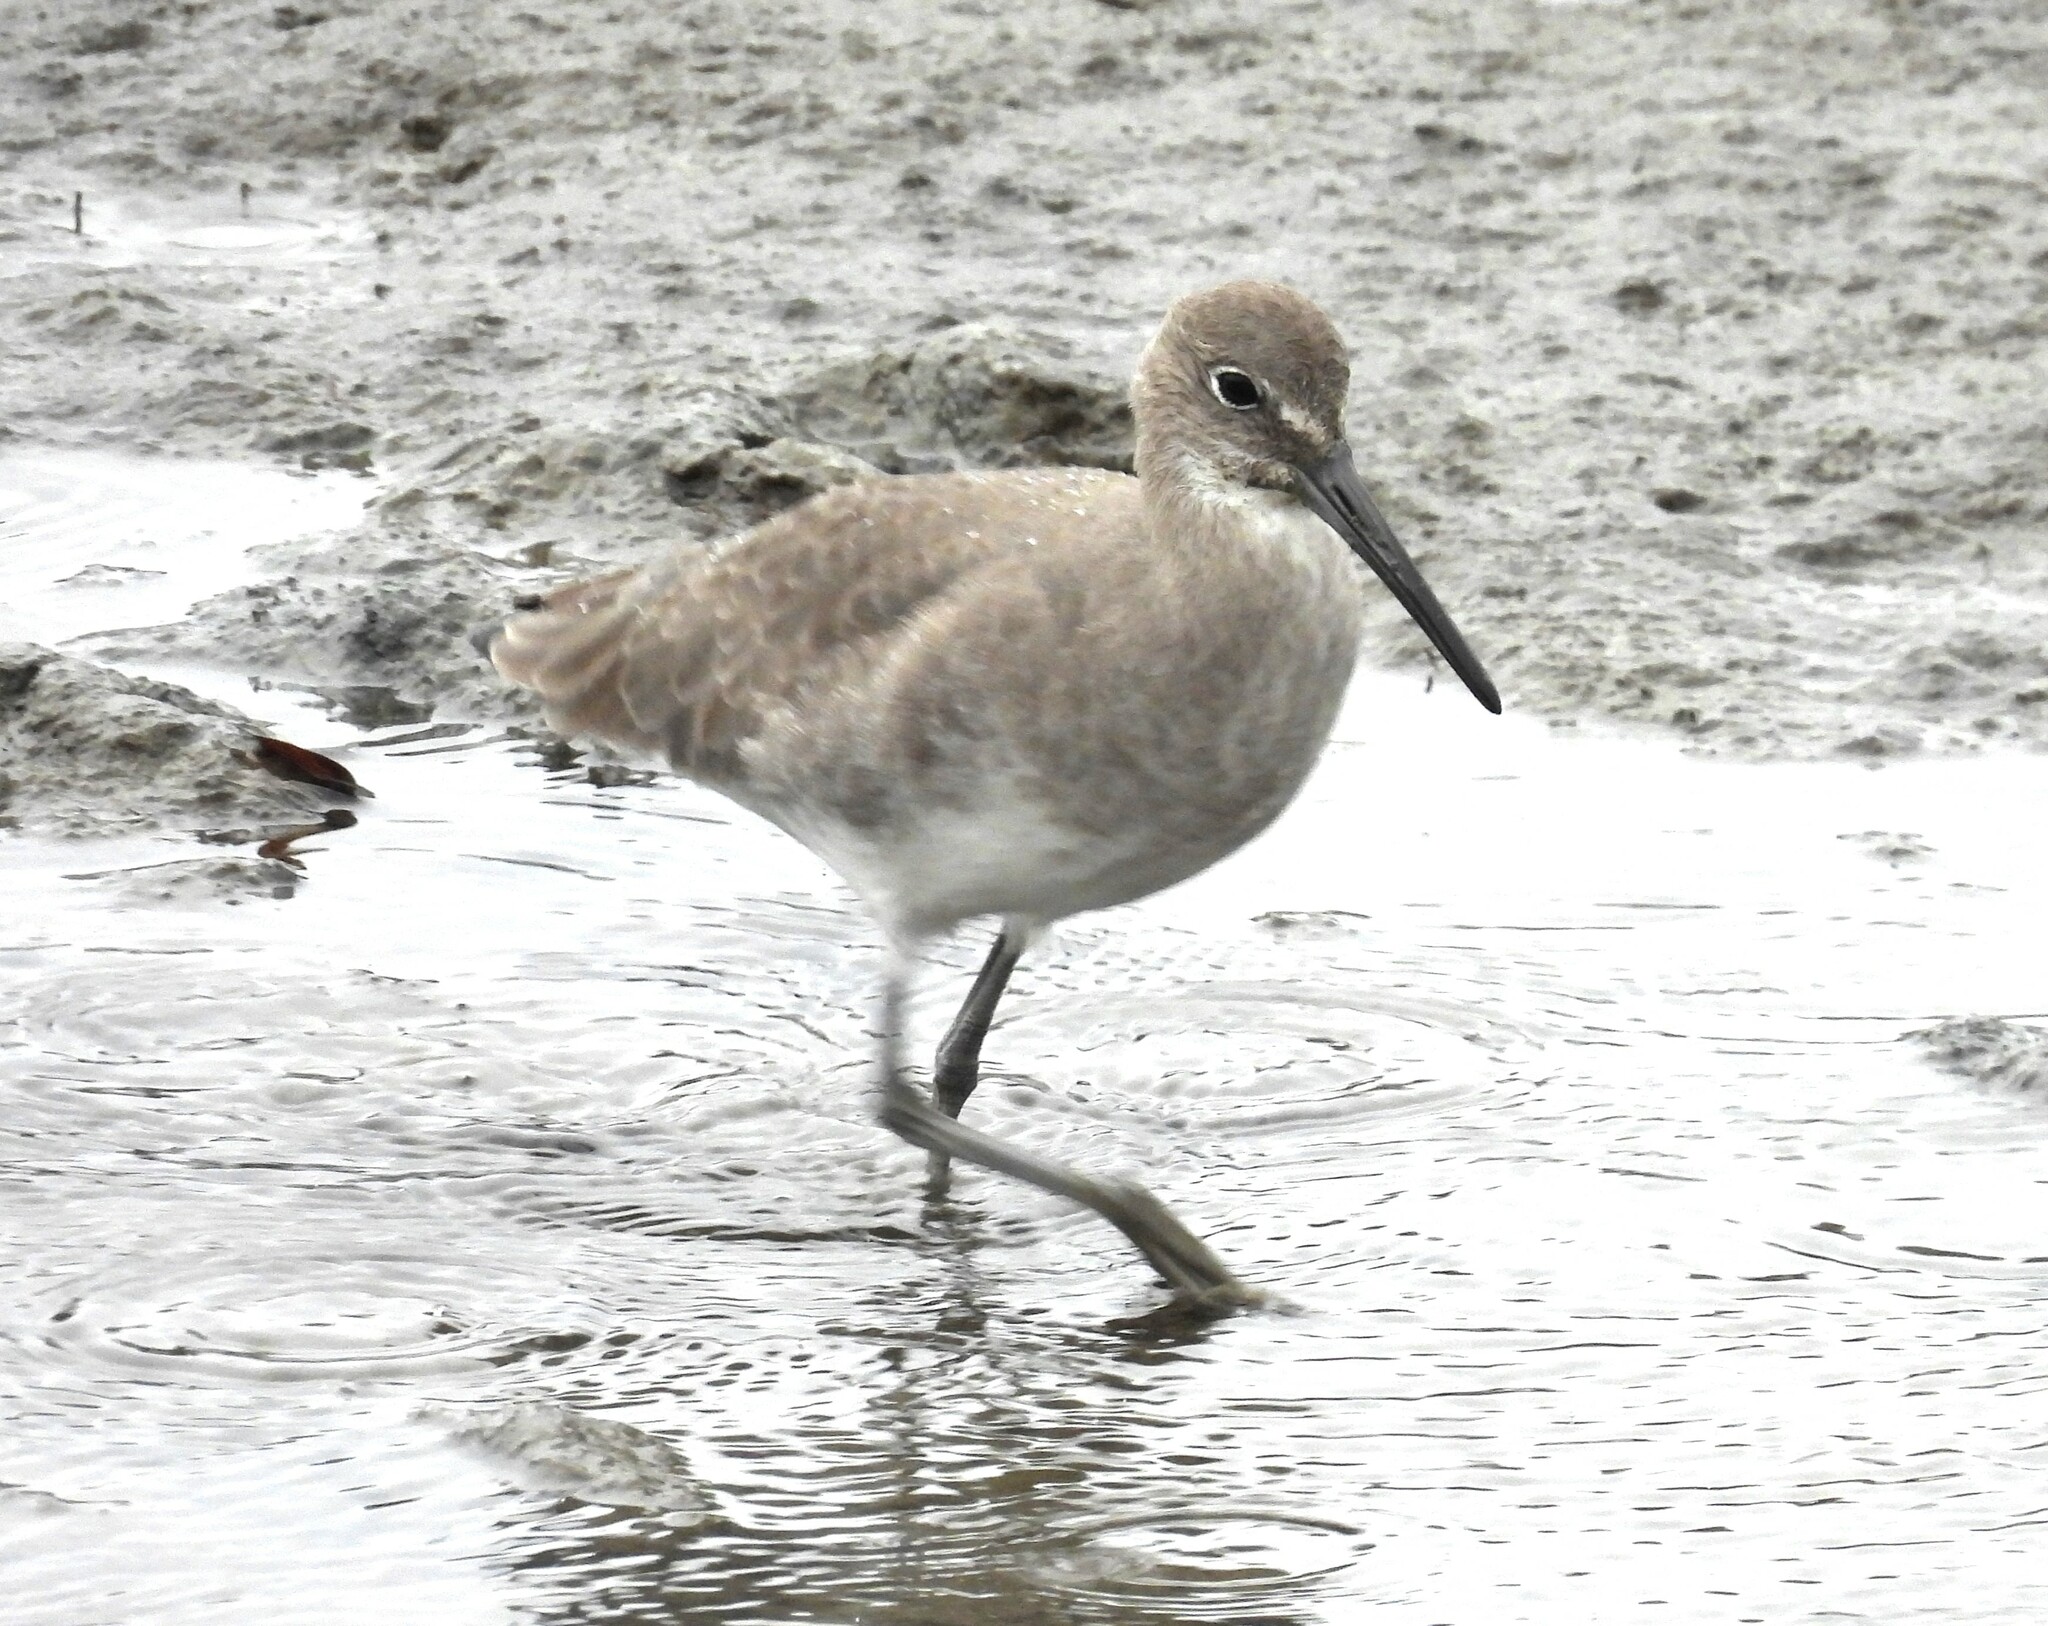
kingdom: Animalia
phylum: Chordata
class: Aves
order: Charadriiformes
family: Scolopacidae
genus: Tringa
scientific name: Tringa semipalmata
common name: Willet
